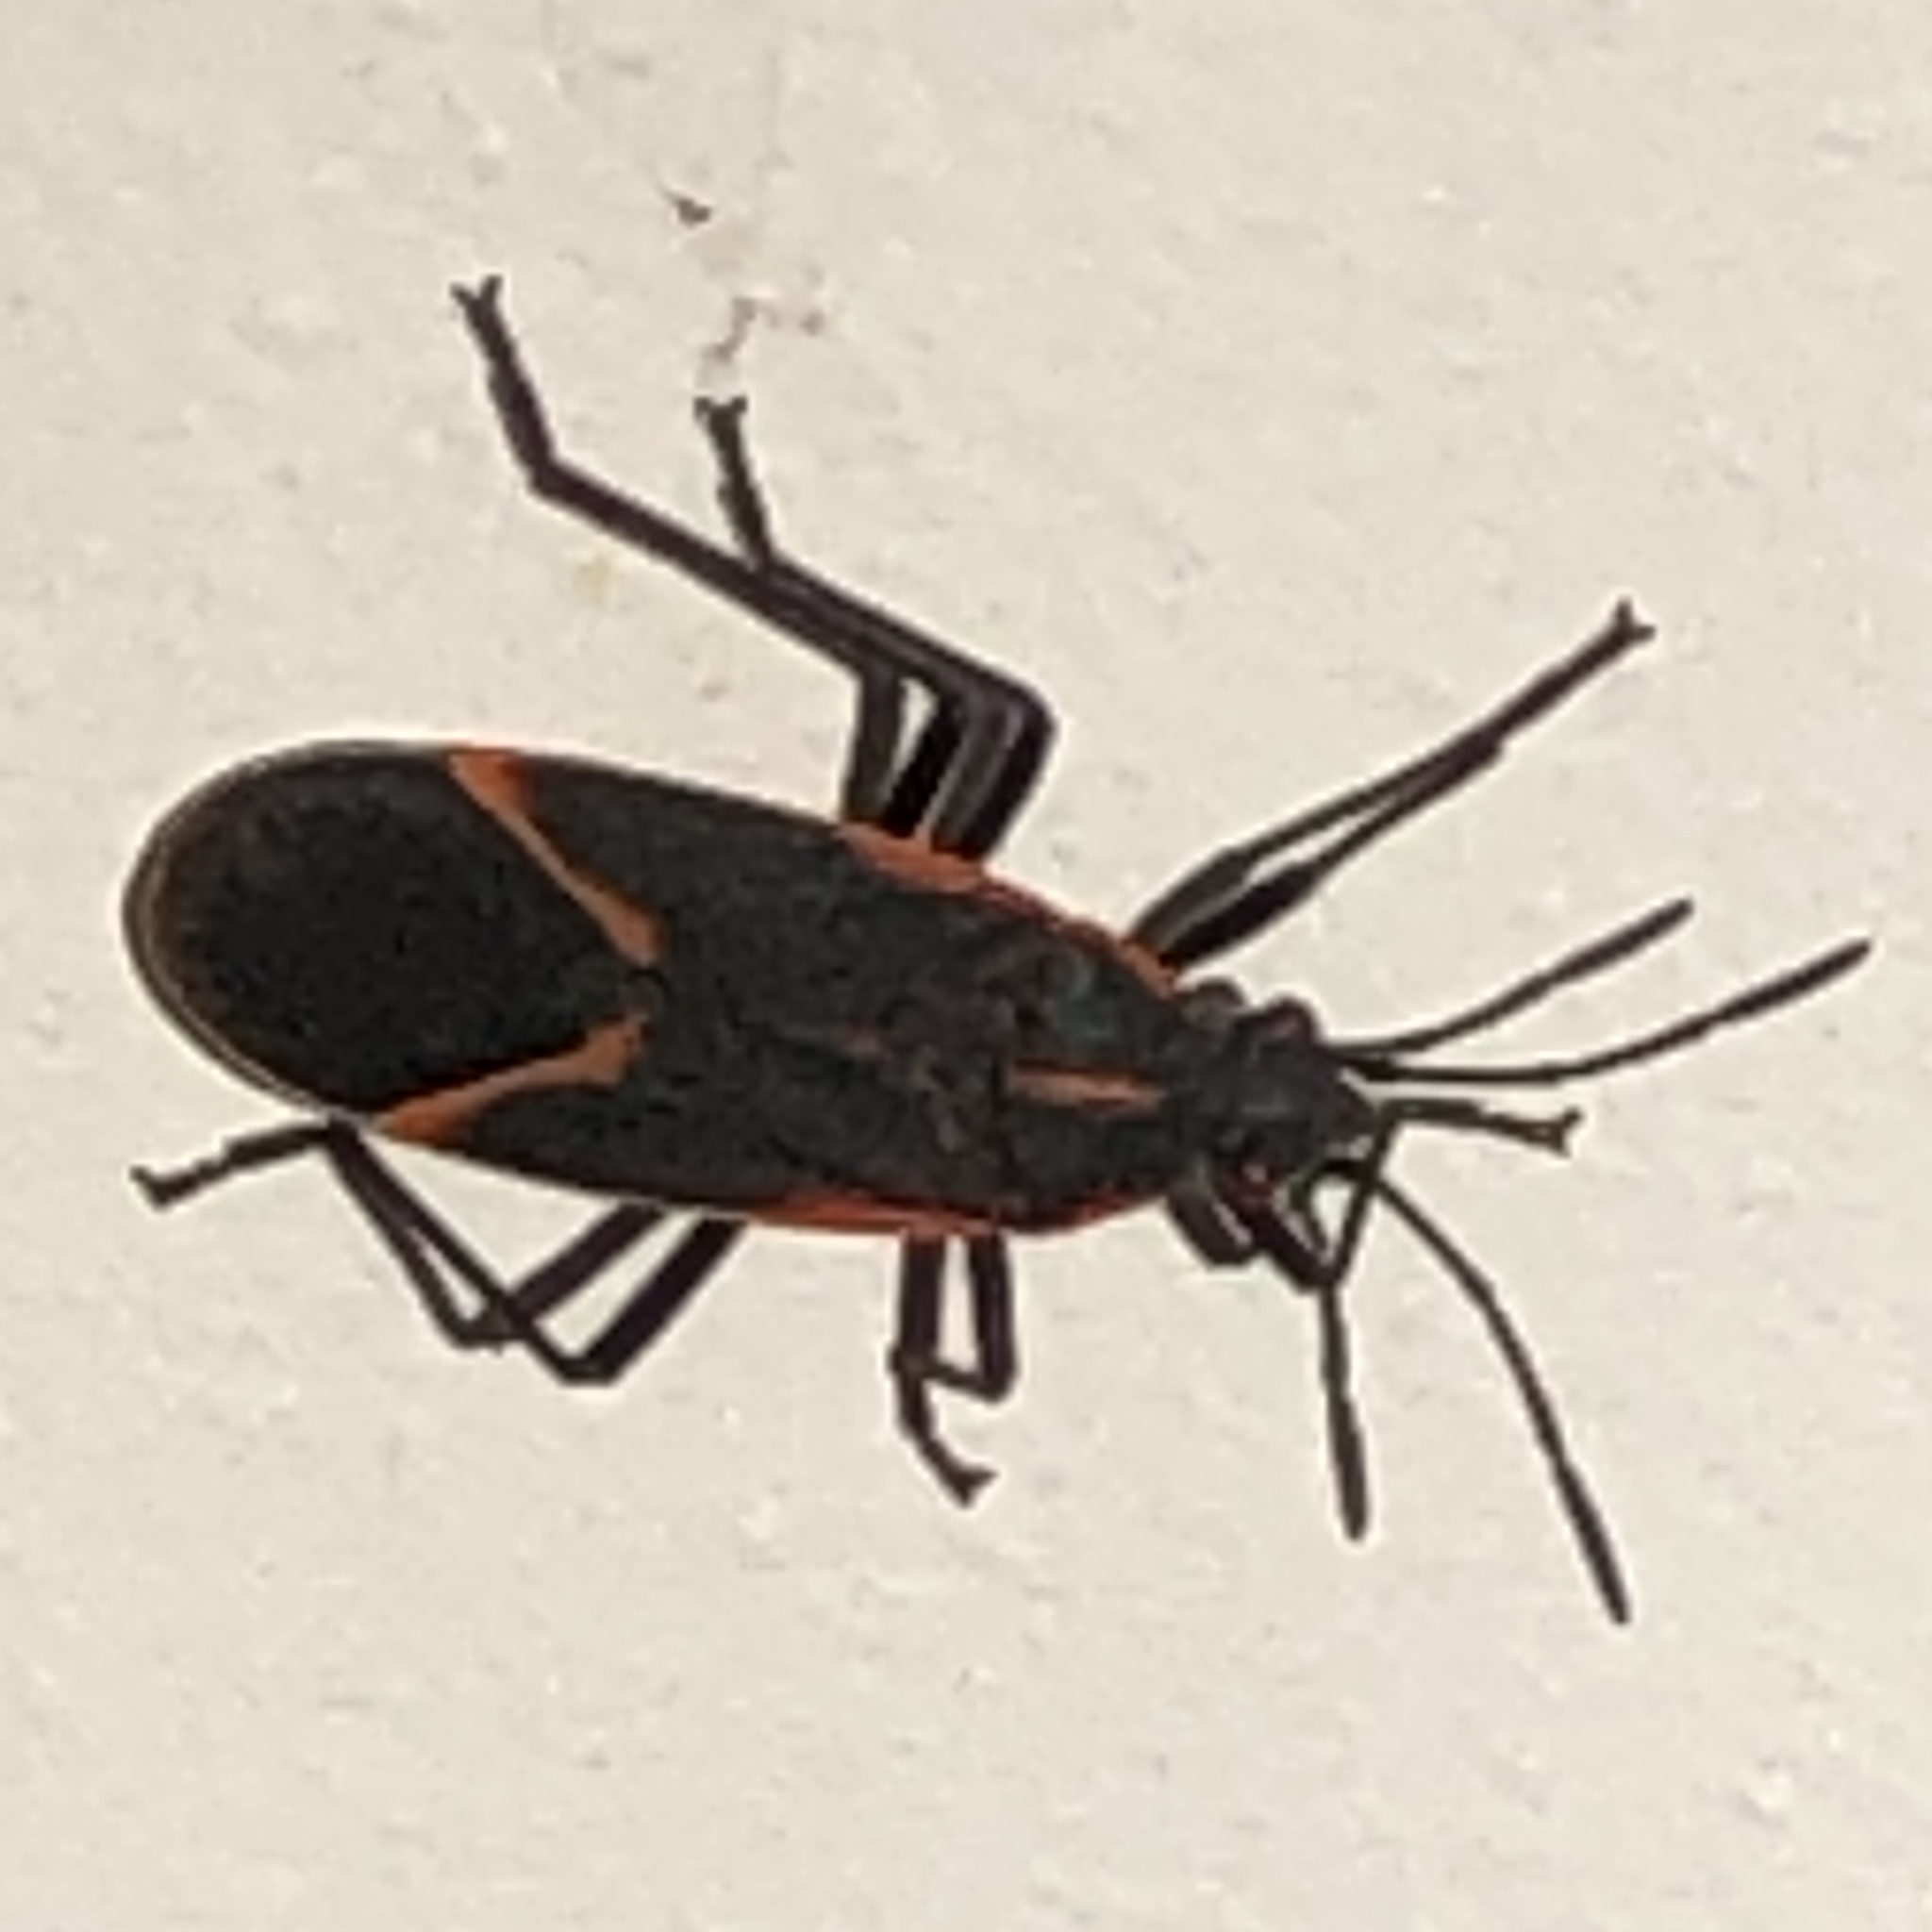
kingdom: Animalia
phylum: Arthropoda
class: Insecta
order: Hemiptera
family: Rhopalidae
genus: Boisea
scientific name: Boisea trivittata
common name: Boxelder bug
